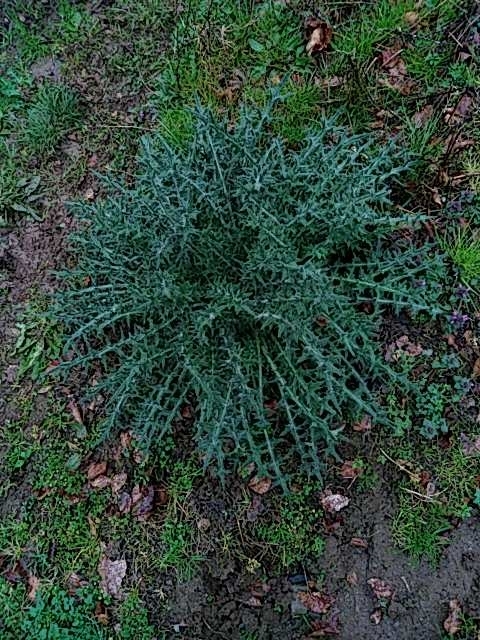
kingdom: Plantae
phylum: Tracheophyta
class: Magnoliopsida
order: Asterales
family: Asteraceae
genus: Cirsium
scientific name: Cirsium vulgare
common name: Bull thistle
